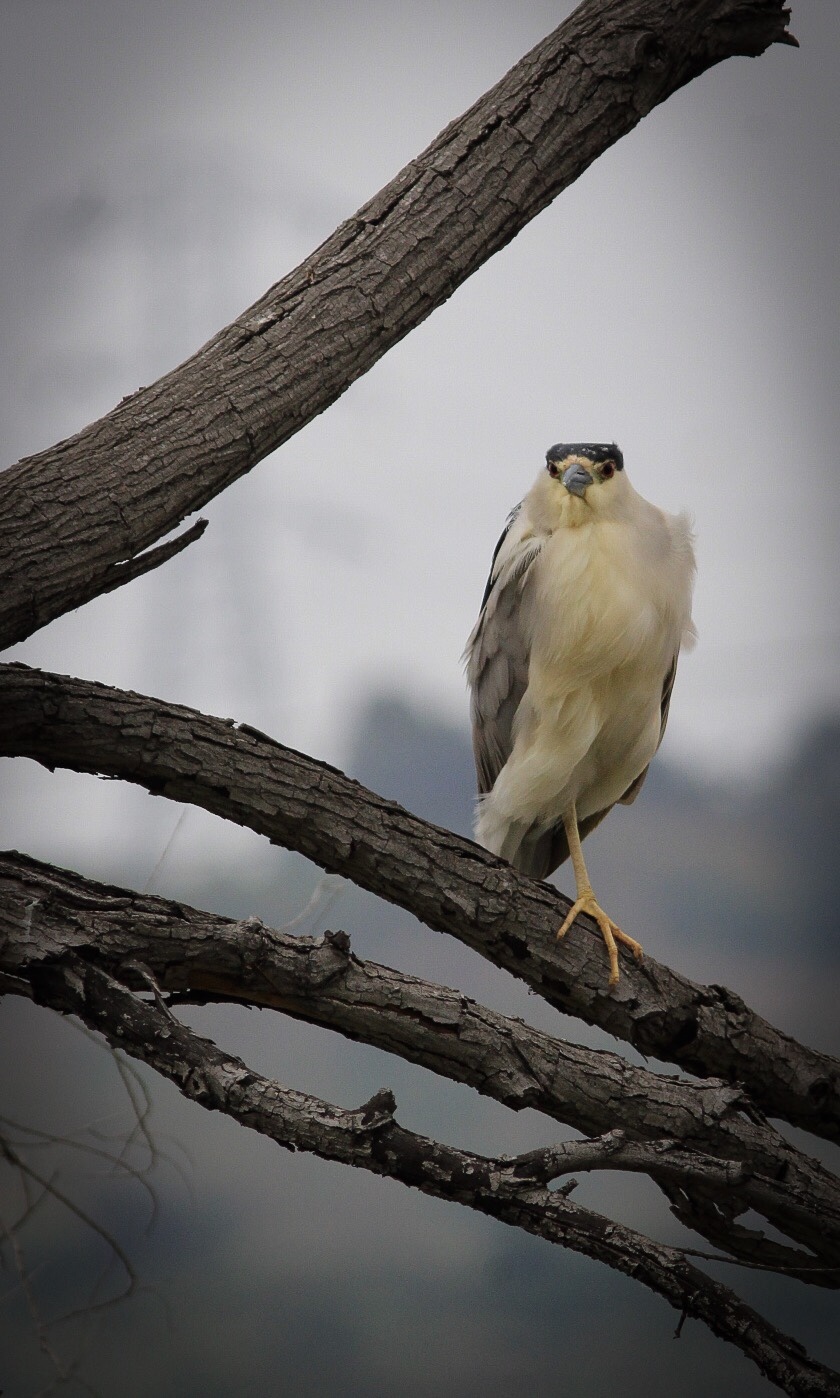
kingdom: Animalia
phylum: Chordata
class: Aves
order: Pelecaniformes
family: Ardeidae
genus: Nycticorax
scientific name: Nycticorax nycticorax
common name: Black-crowned night heron
